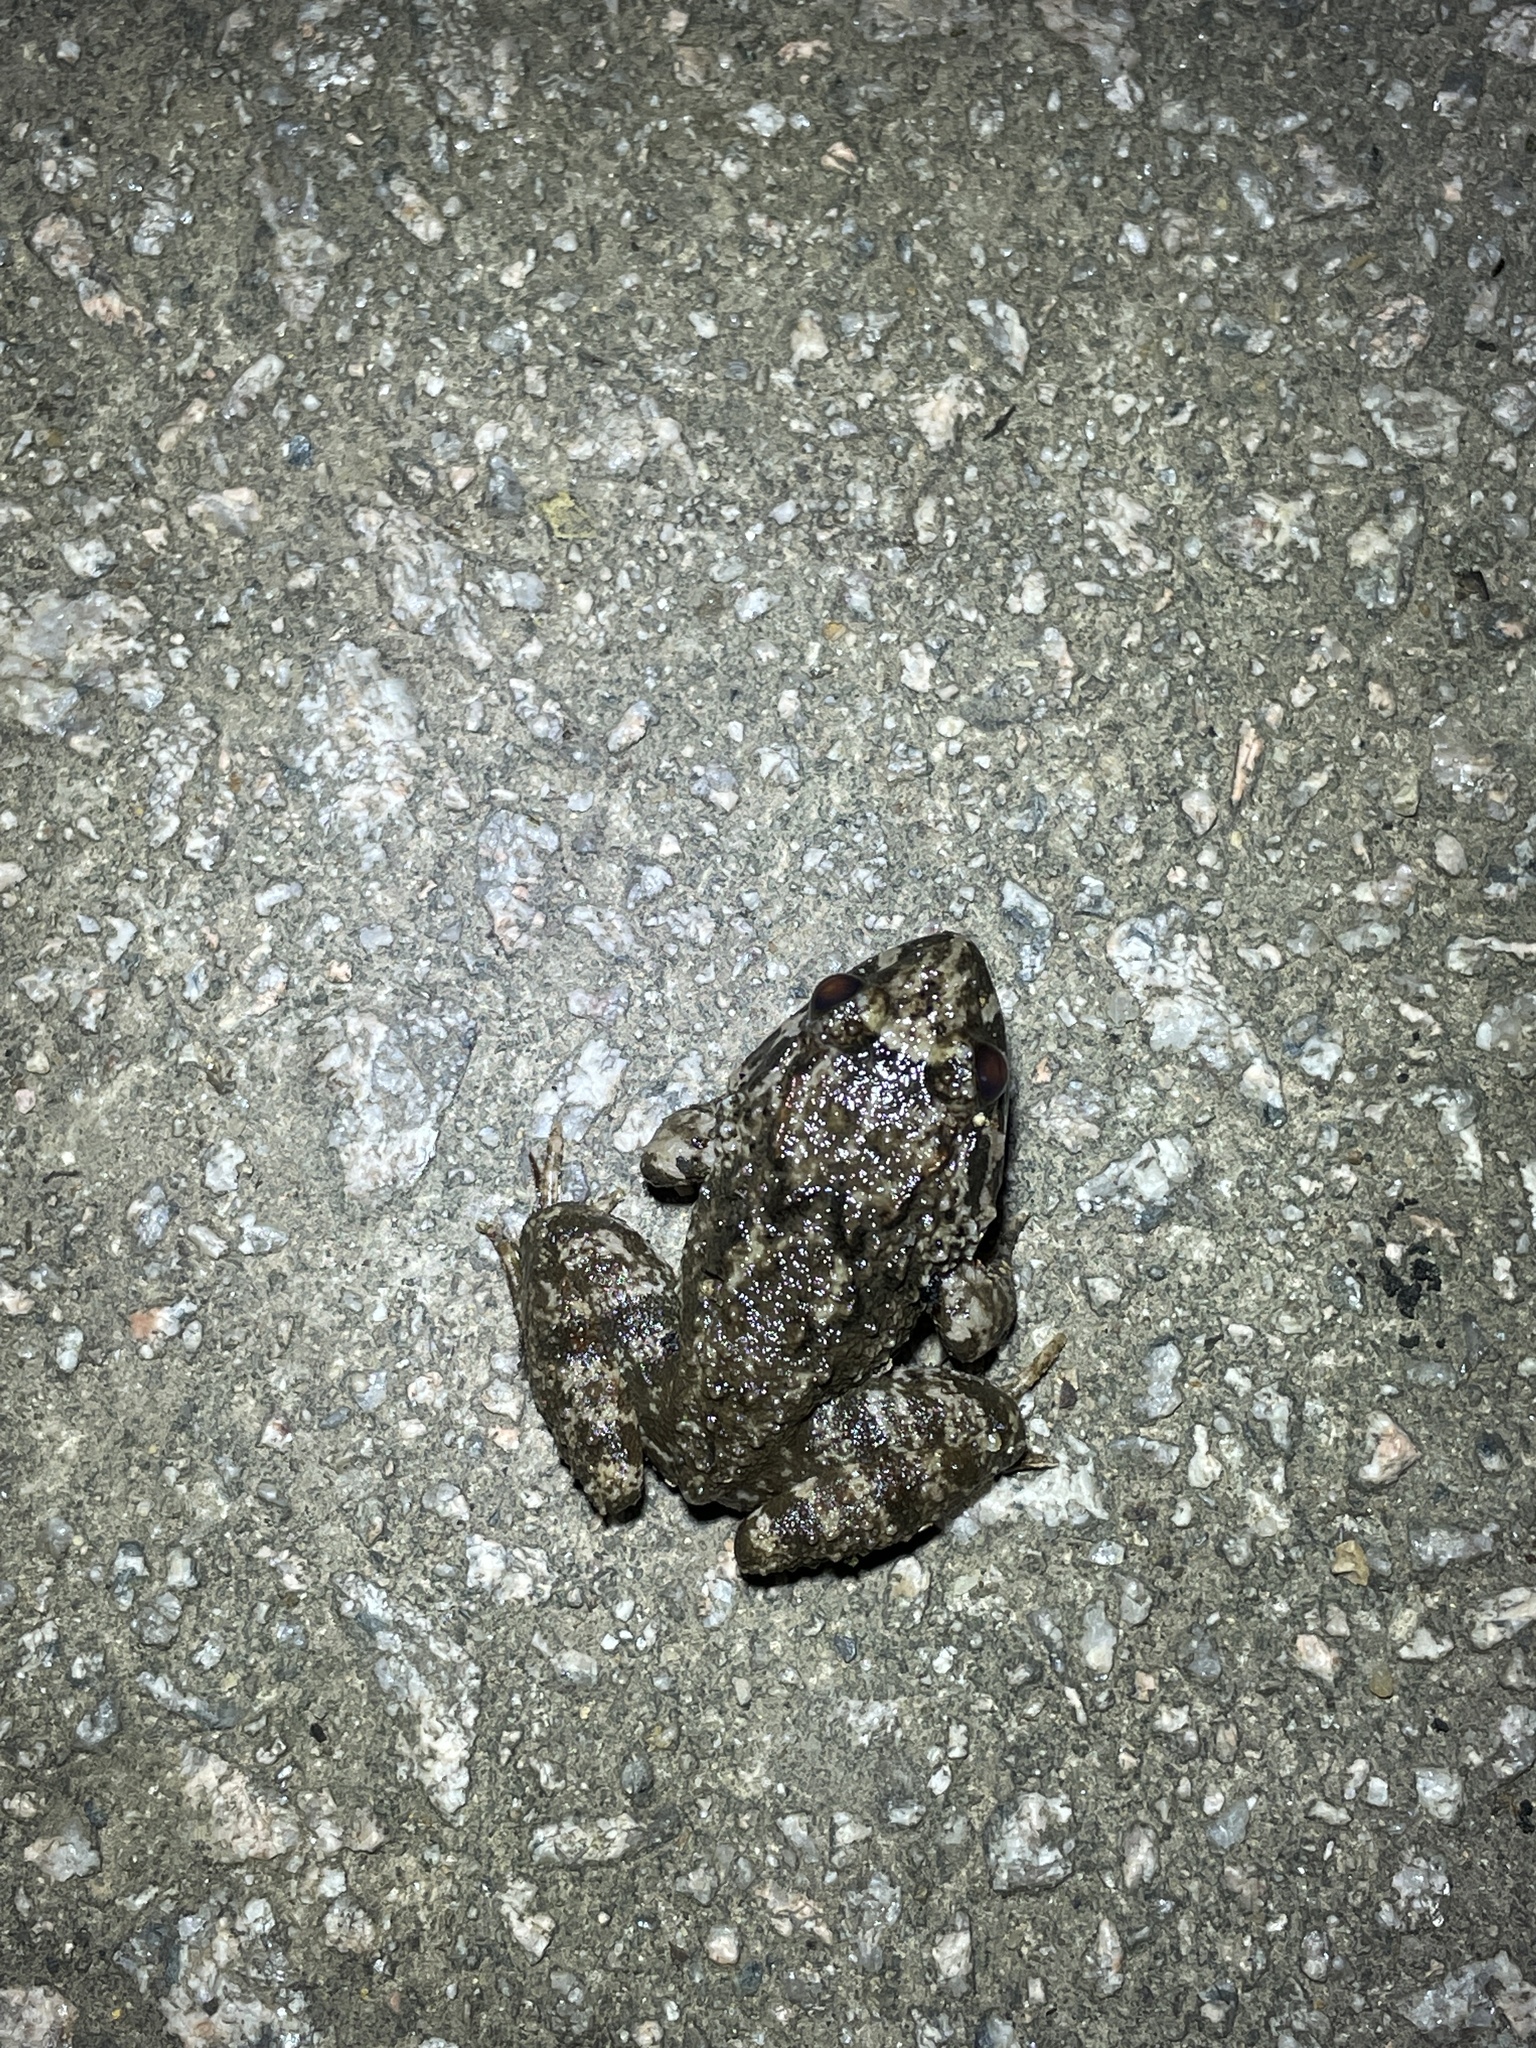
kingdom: Animalia
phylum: Chordata
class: Amphibia
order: Anura
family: Dicroglossidae
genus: Limnonectes
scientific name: Limnonectes fujianensis
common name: Fujian large-headed frog
